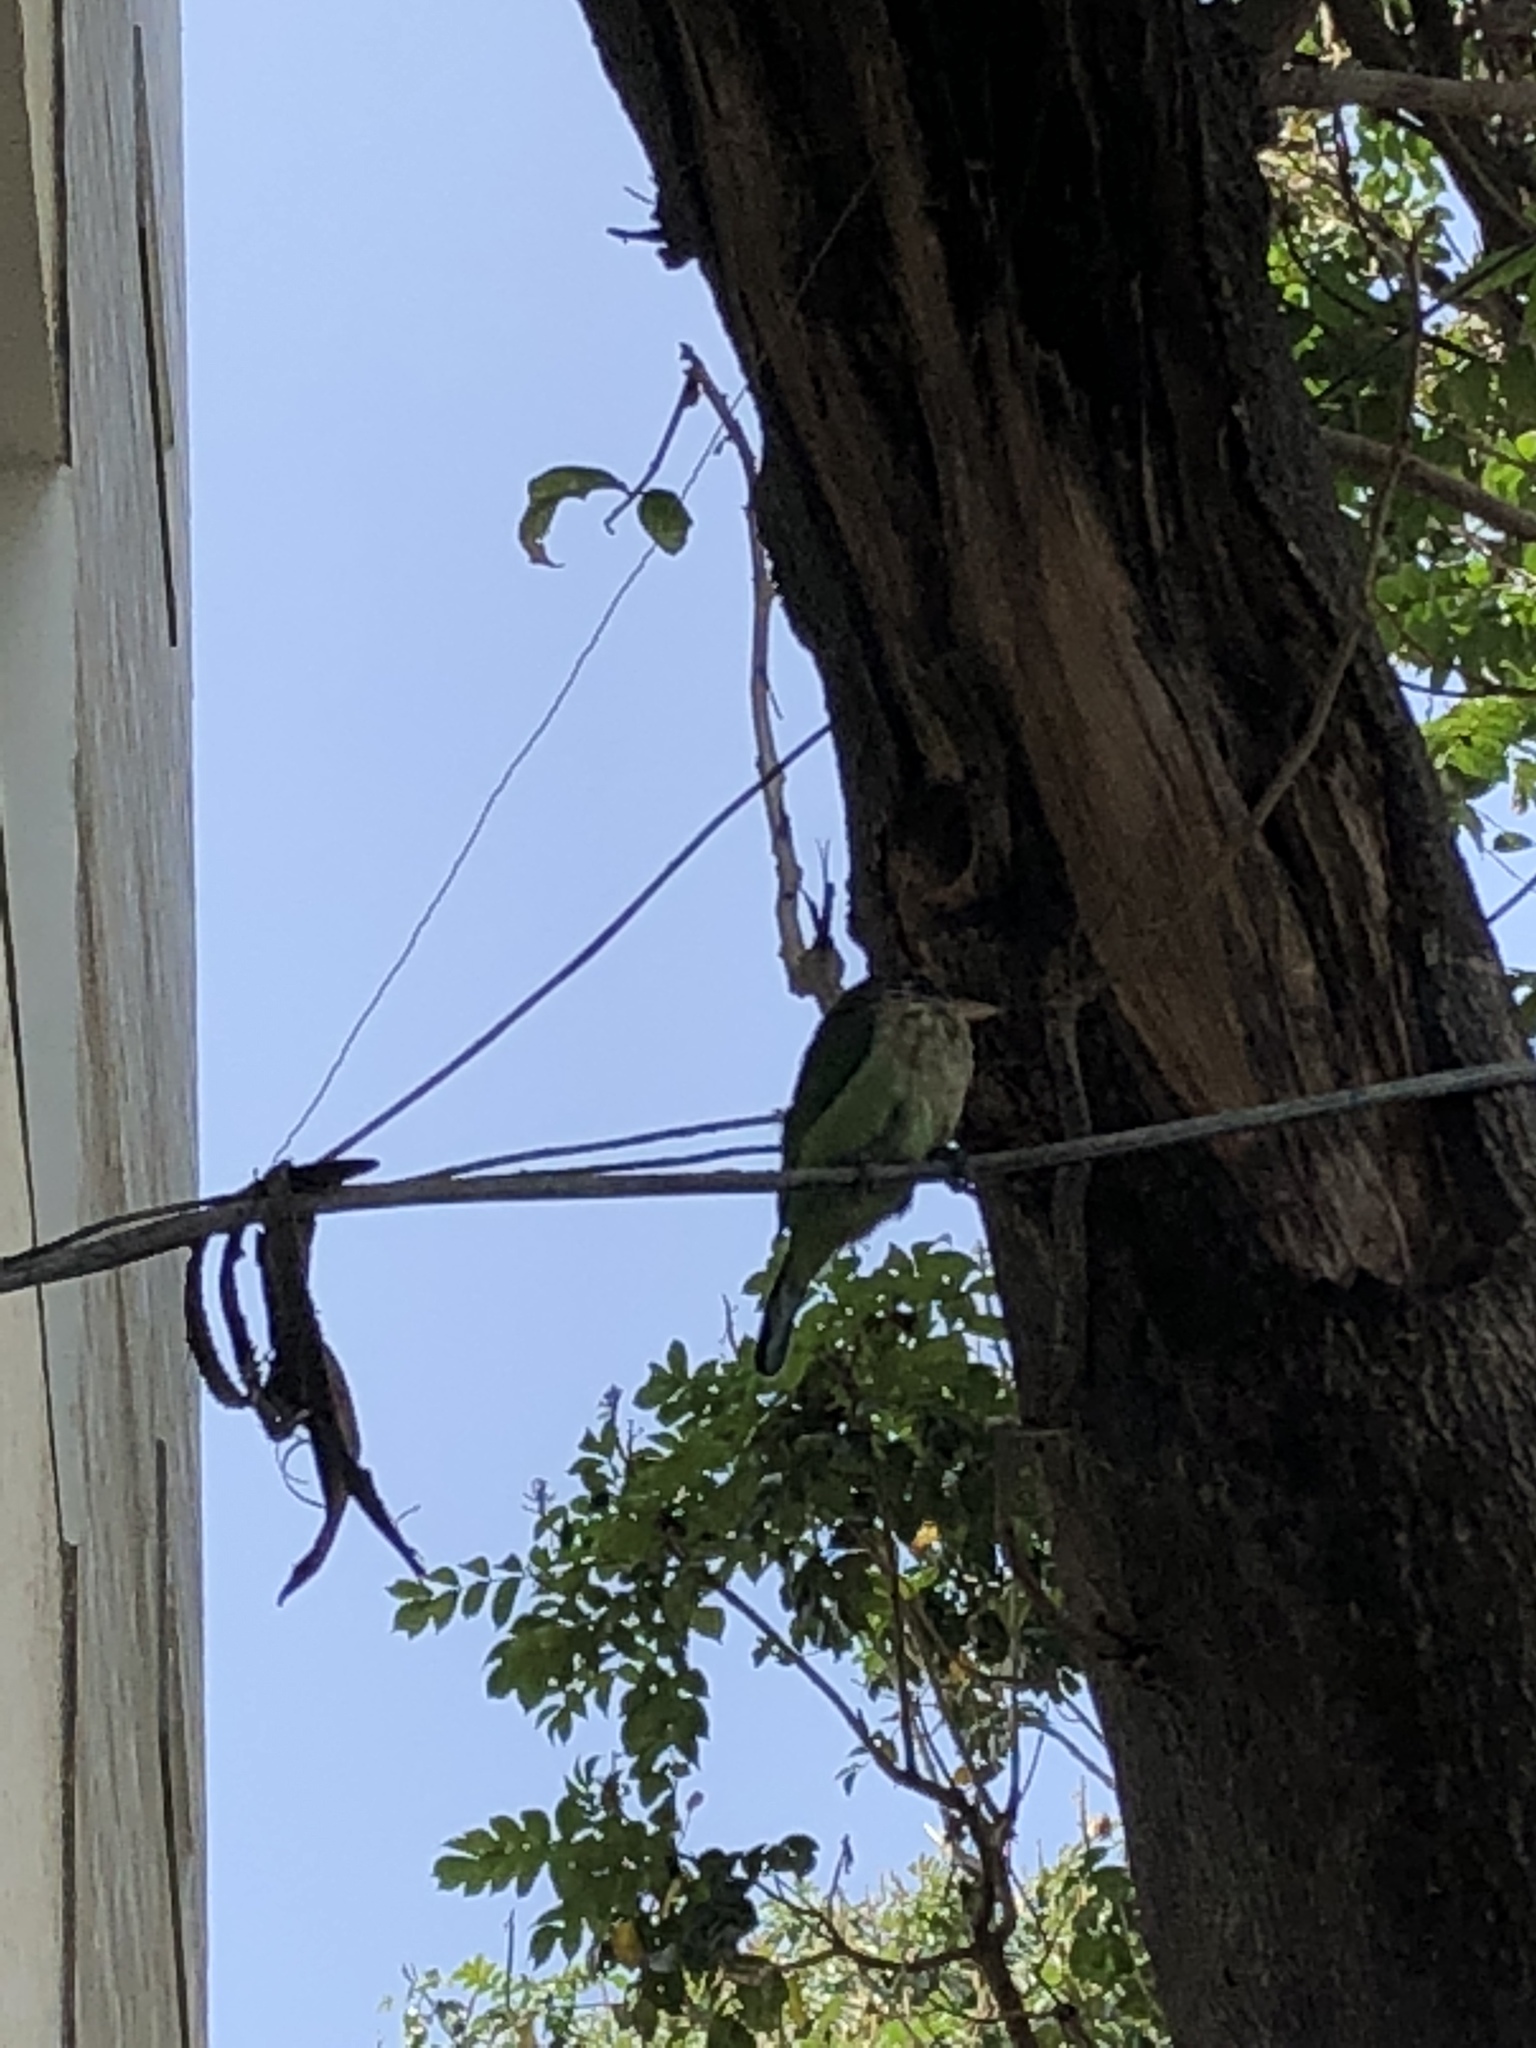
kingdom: Animalia
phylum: Chordata
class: Aves
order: Piciformes
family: Megalaimidae
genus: Psilopogon
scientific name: Psilopogon viridis
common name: White-cheeked barbet
